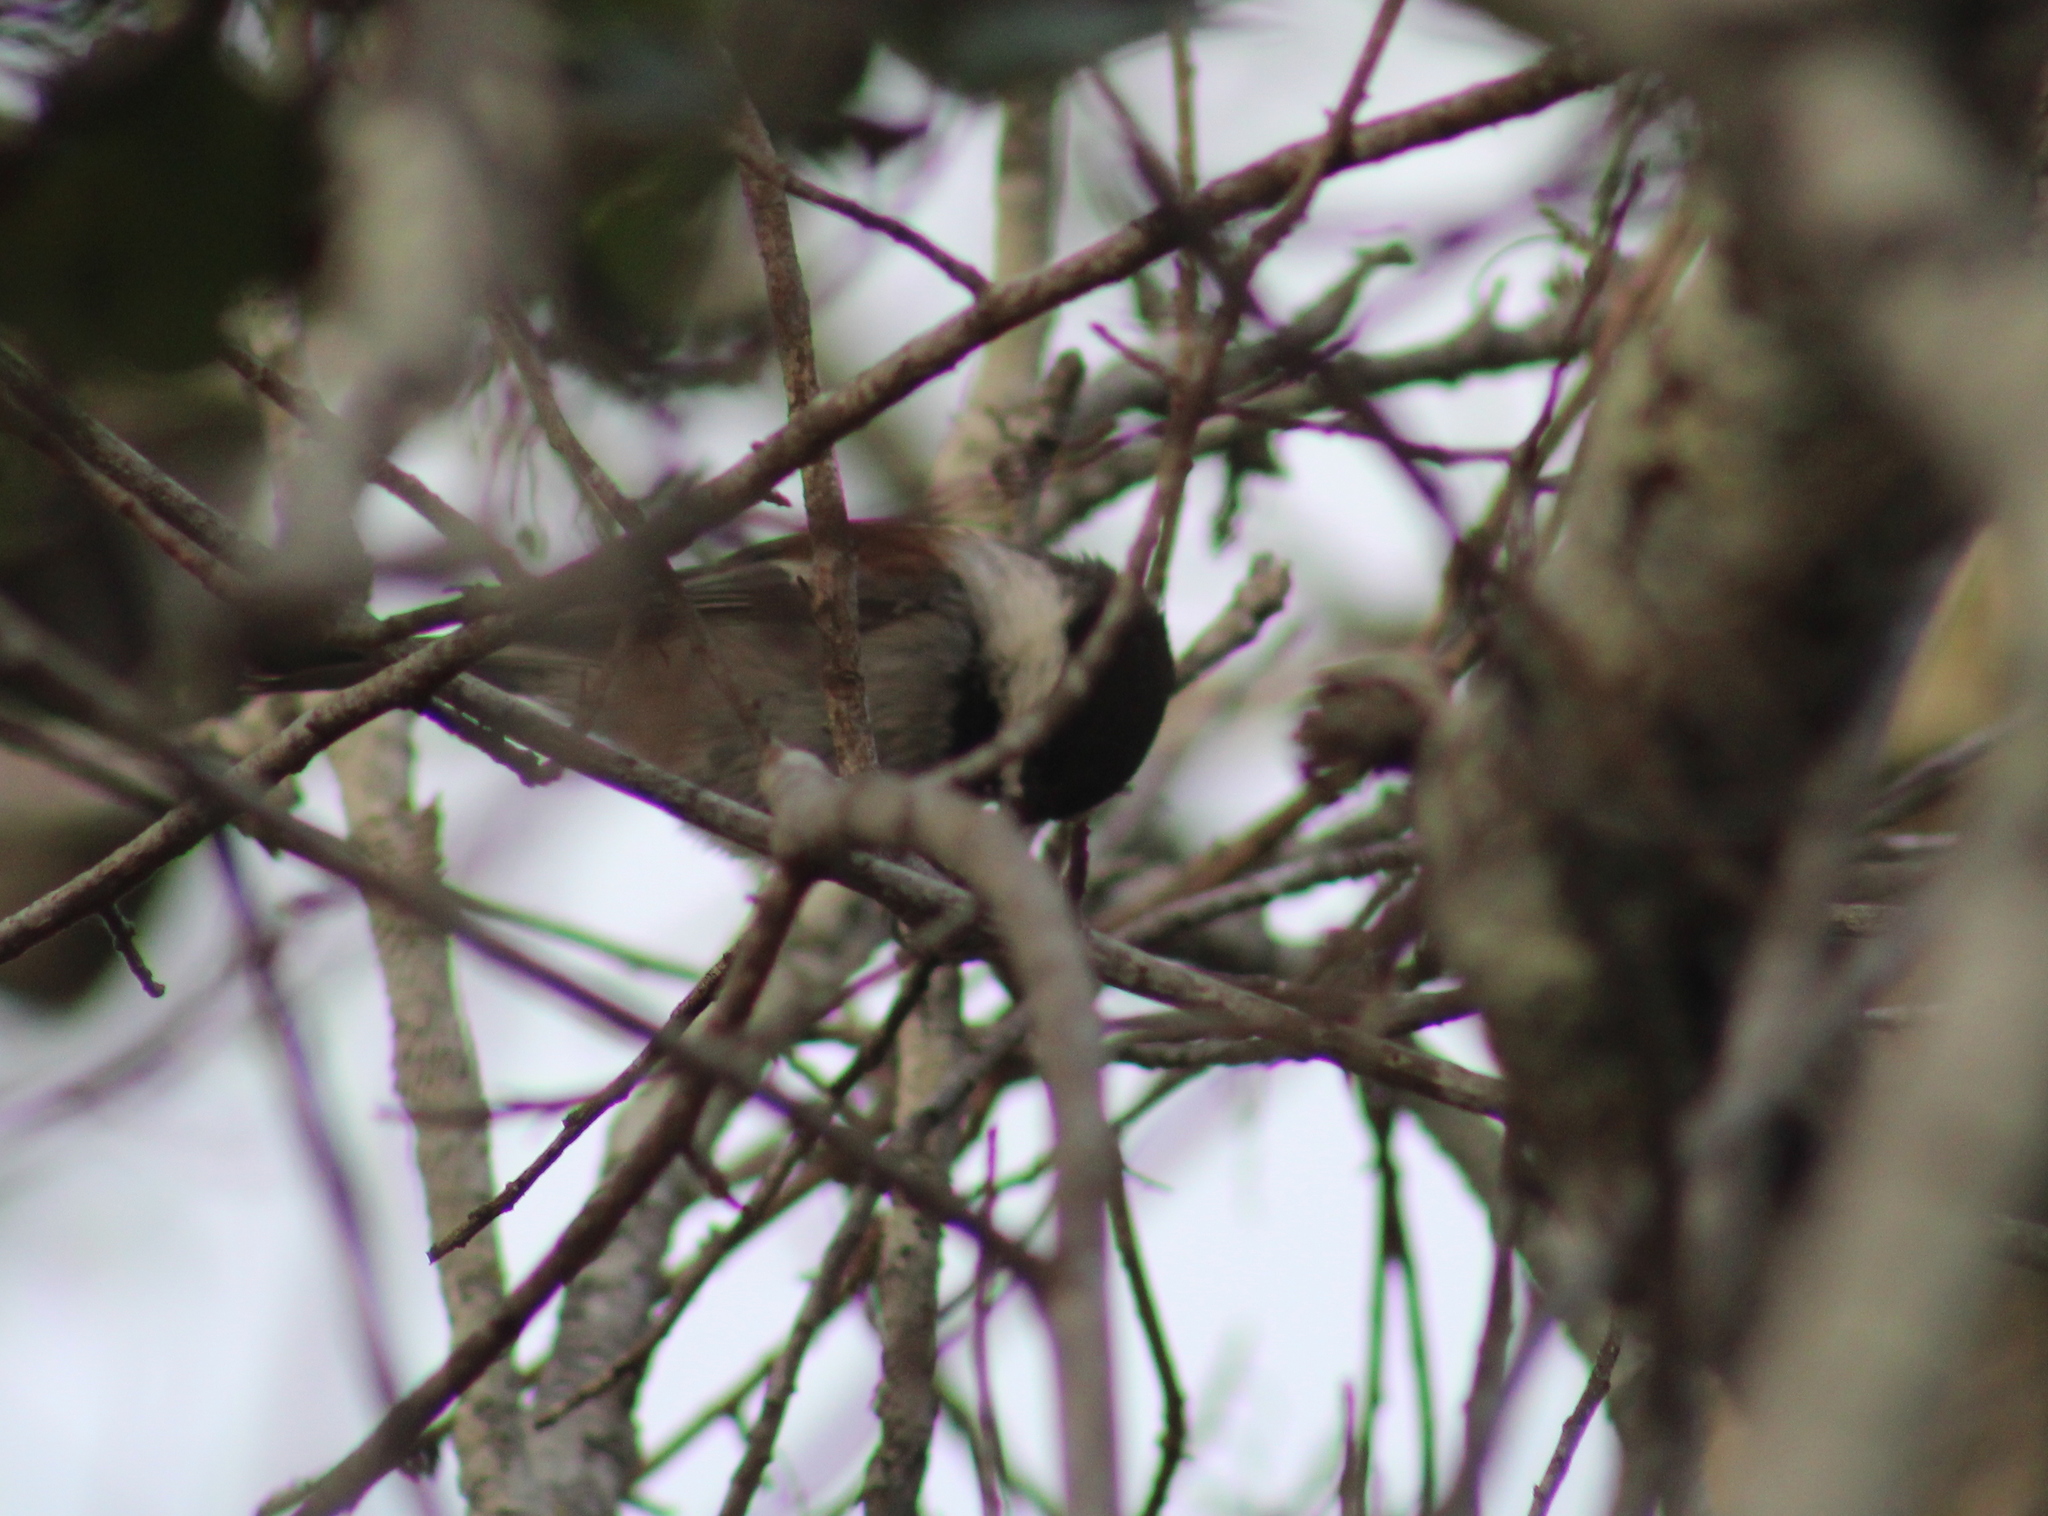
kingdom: Animalia
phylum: Chordata
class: Aves
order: Passeriformes
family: Paridae
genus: Poecile
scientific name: Poecile rufescens
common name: Chestnut-backed chickadee
